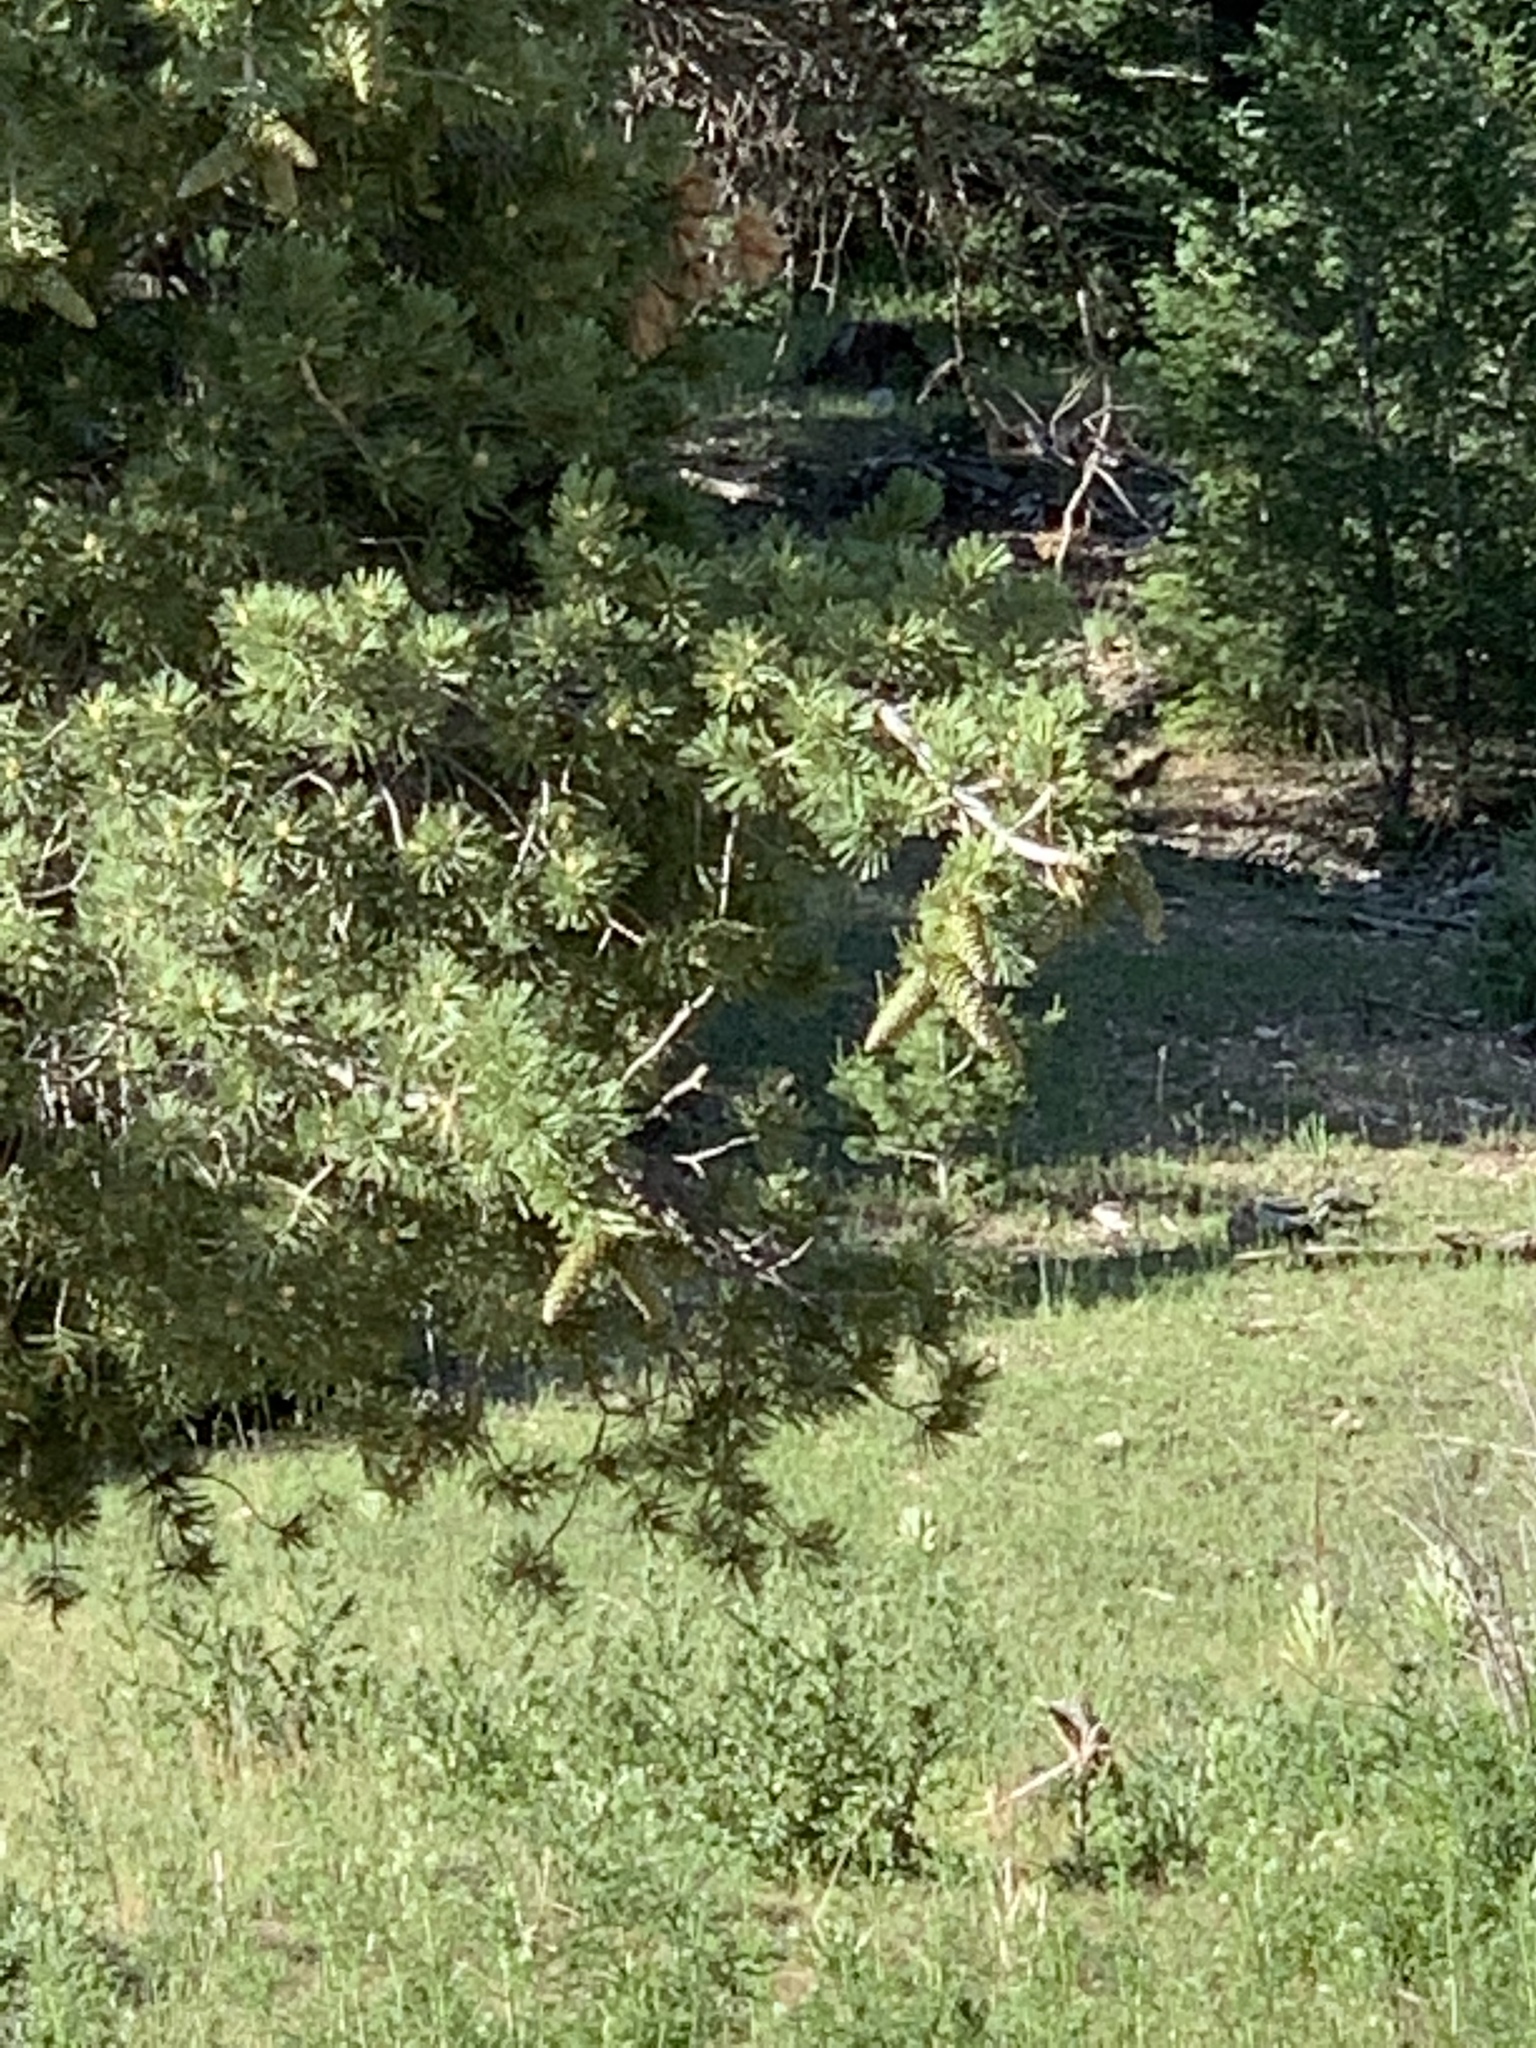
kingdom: Plantae
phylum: Tracheophyta
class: Pinopsida
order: Pinales
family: Pinaceae
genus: Pinus
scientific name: Pinus strobiformis
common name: Southwestern white pine
